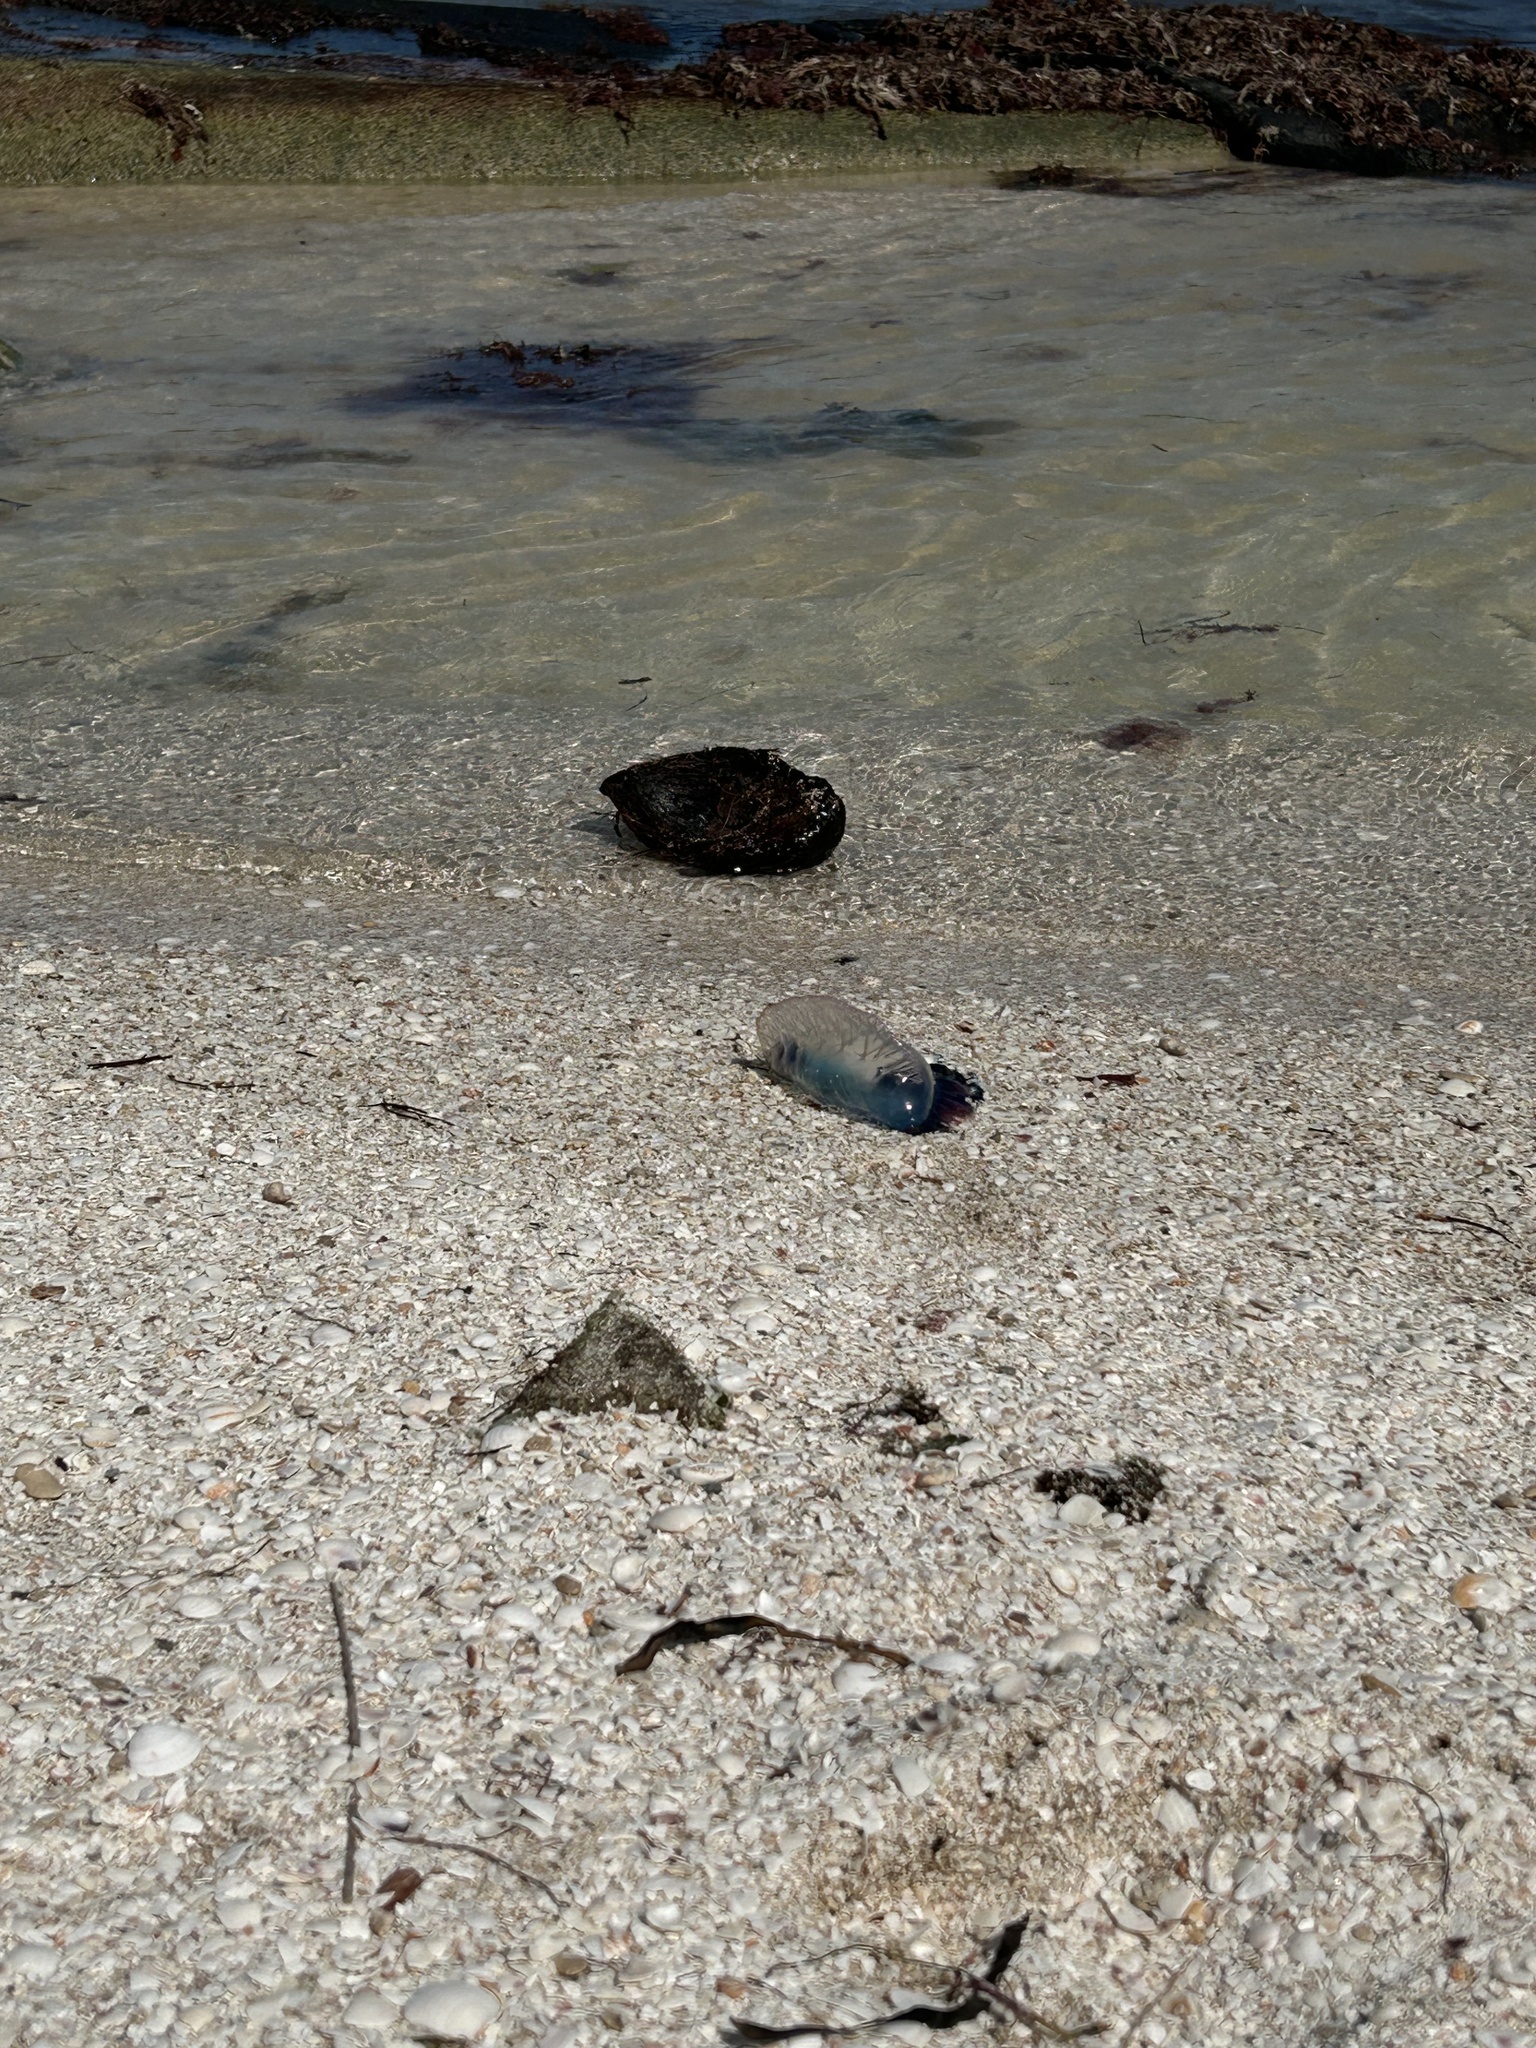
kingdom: Animalia
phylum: Cnidaria
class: Hydrozoa
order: Siphonophorae
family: Physaliidae
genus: Physalia
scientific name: Physalia physalis
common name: Portuguese man-of-war
